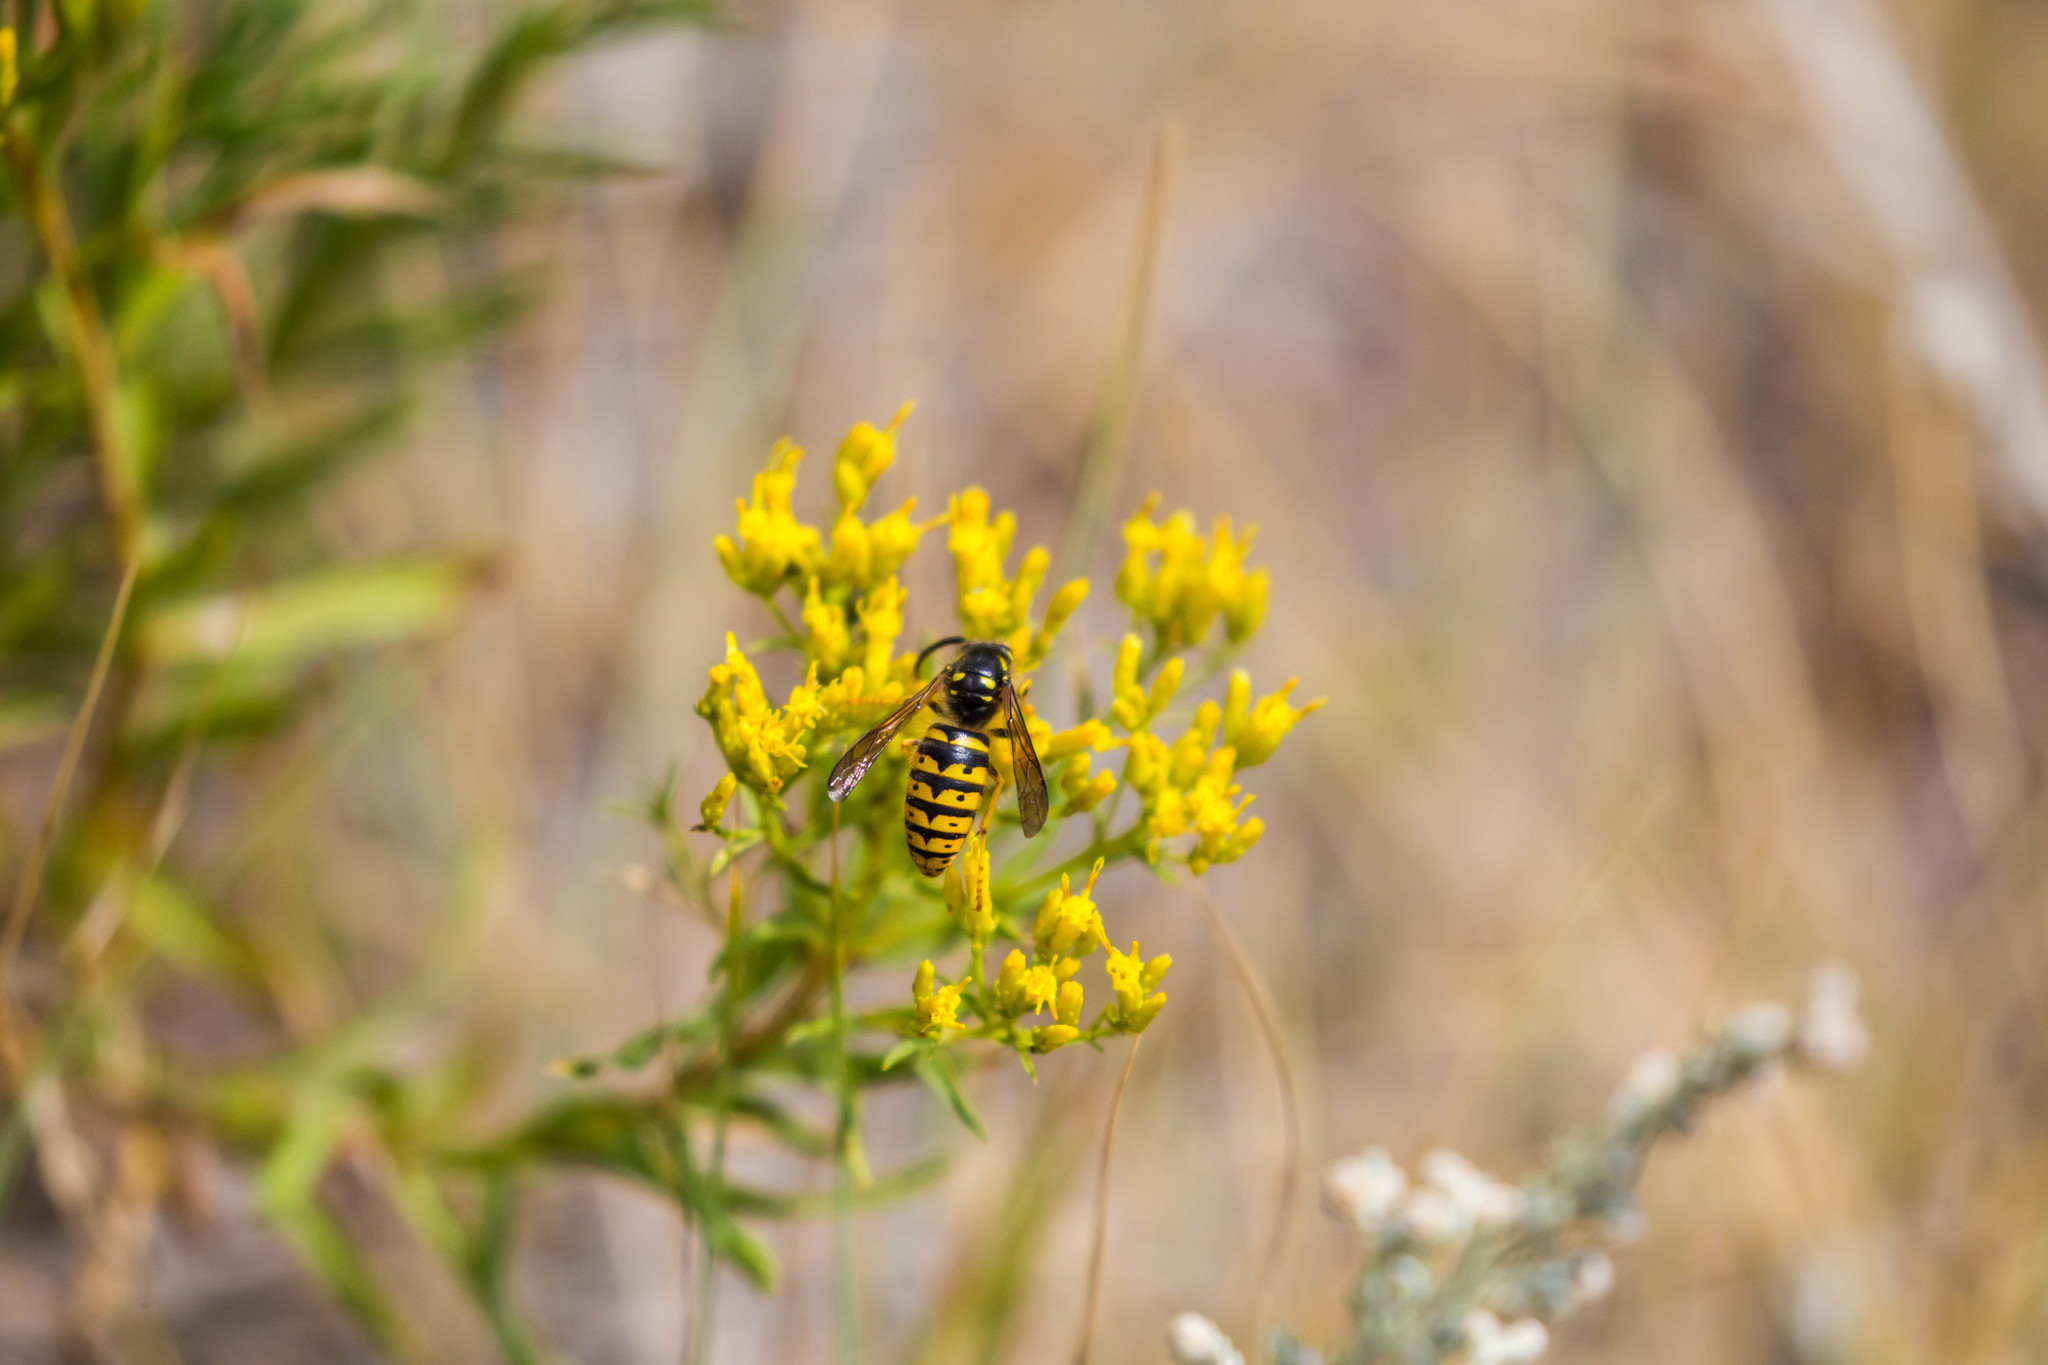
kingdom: Animalia
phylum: Arthropoda
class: Insecta
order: Hymenoptera
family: Vespidae
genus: Dolichovespula
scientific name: Dolichovespula arenaria
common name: Aerial yellowjacket
